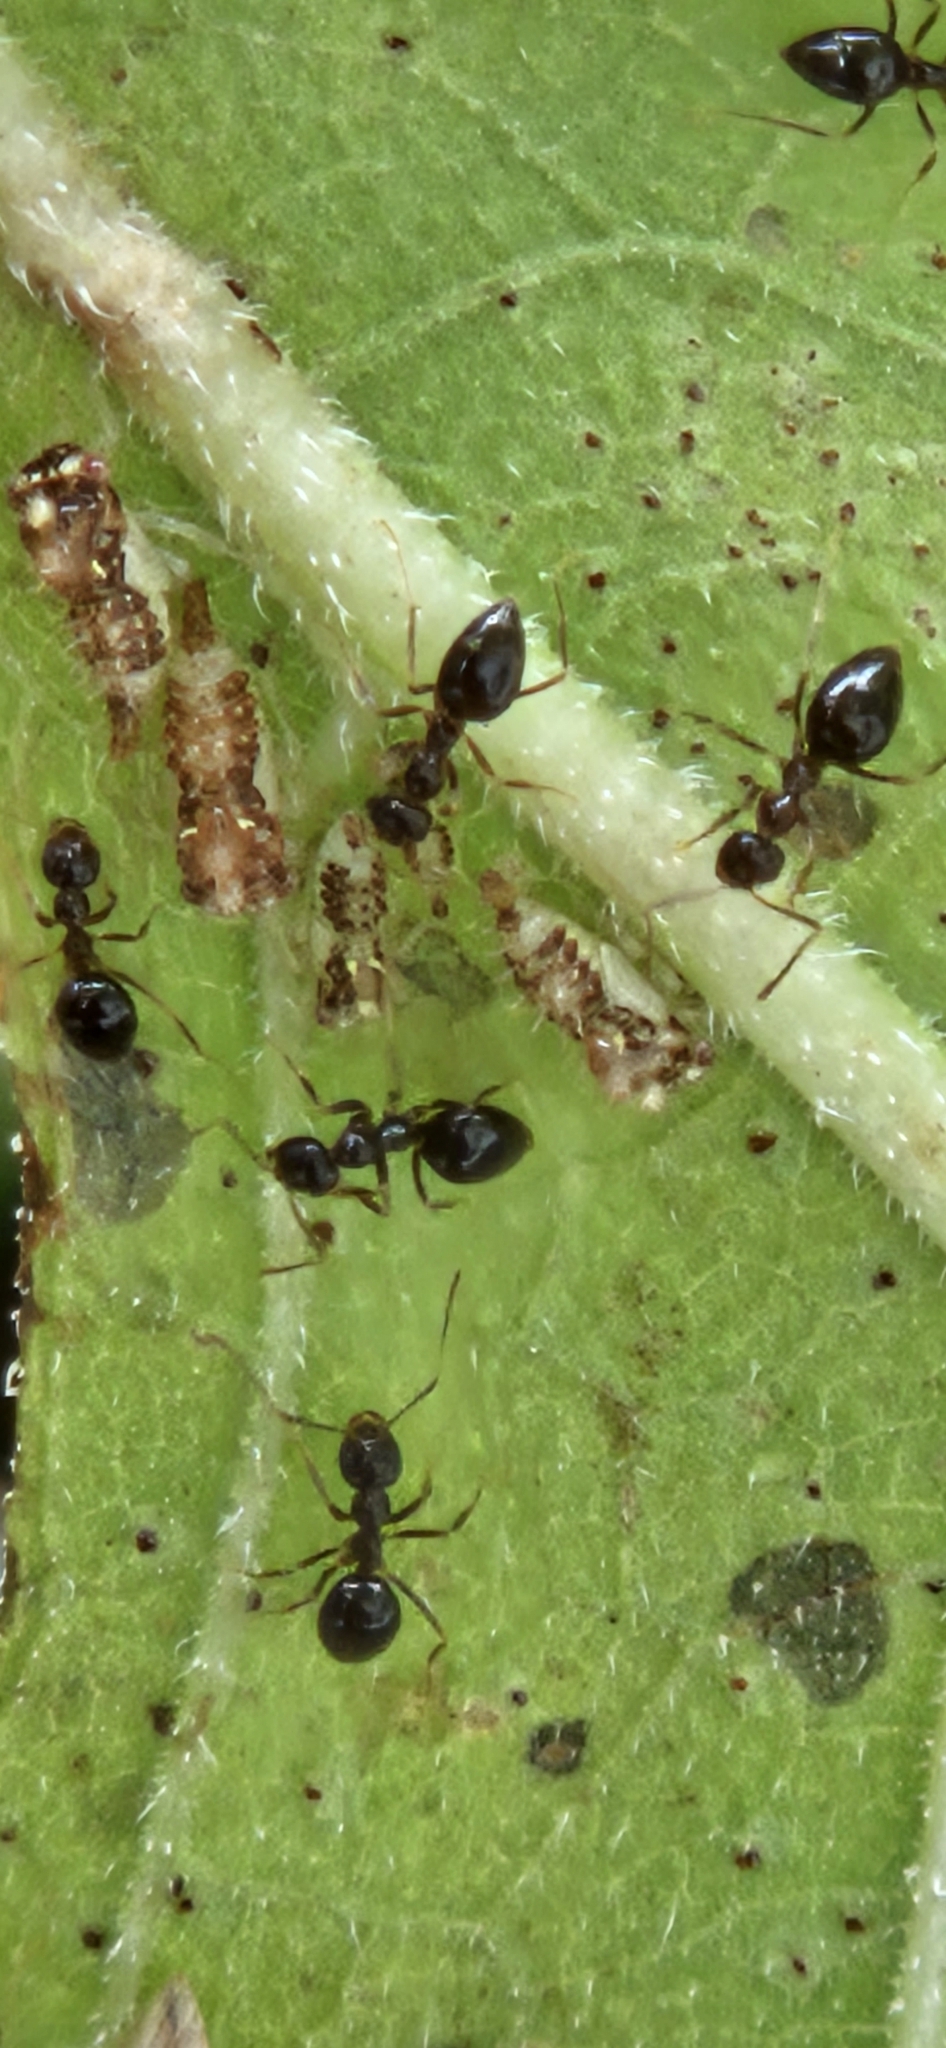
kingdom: Animalia
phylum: Arthropoda
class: Insecta
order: Hymenoptera
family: Formicidae
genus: Prenolepis
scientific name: Prenolepis imparis
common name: Small honey ant
